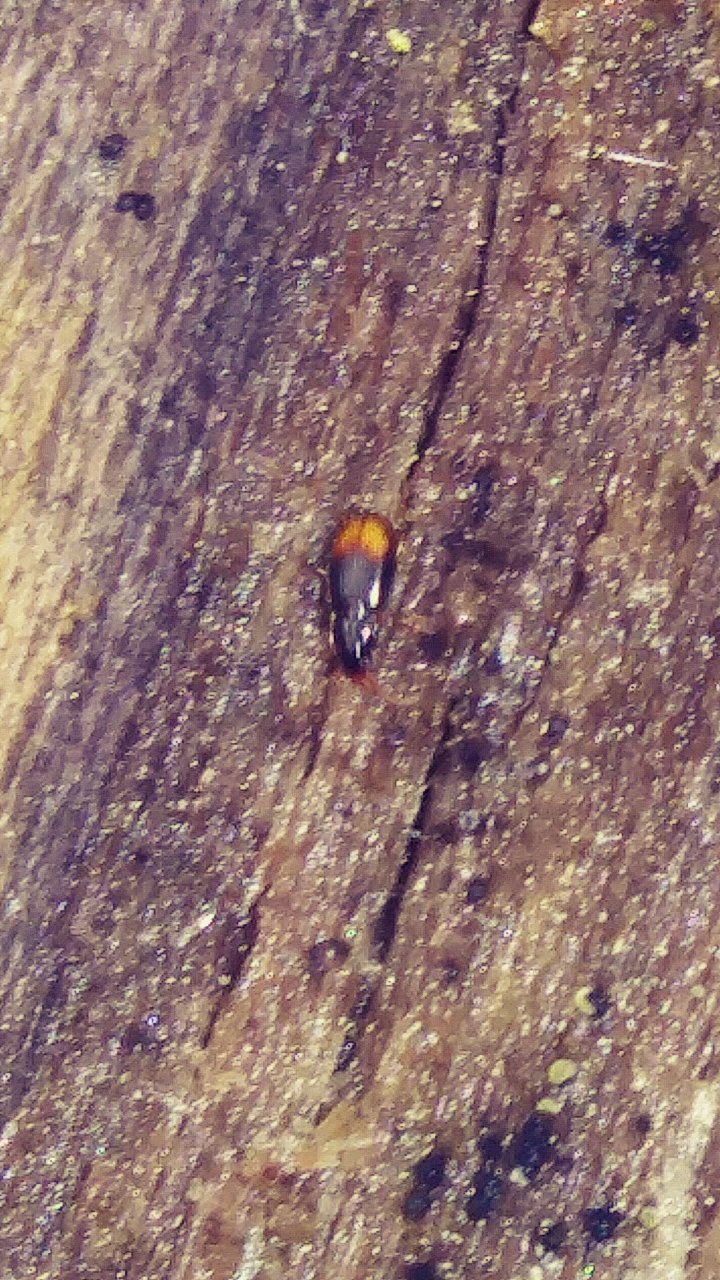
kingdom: Animalia
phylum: Arthropoda
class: Insecta
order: Coleoptera
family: Carabidae
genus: Mioptachys
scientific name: Mioptachys flavicauda
